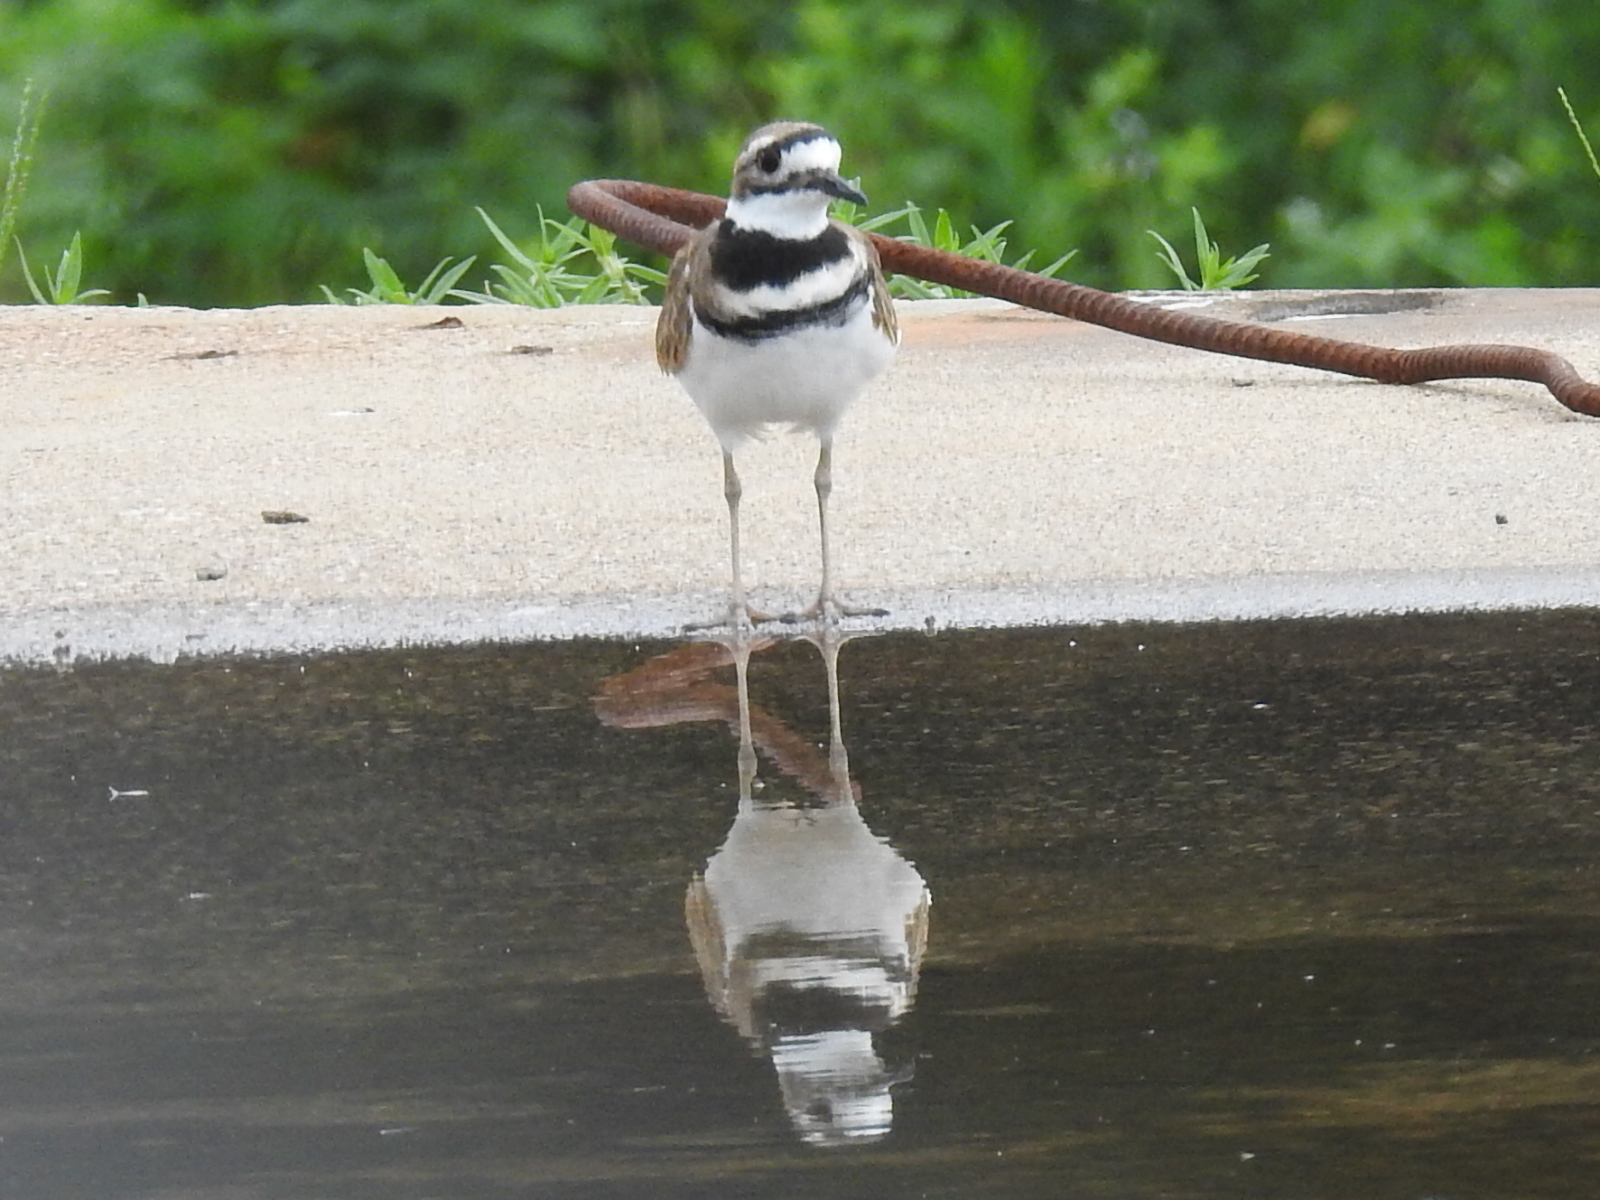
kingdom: Animalia
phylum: Chordata
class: Aves
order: Charadriiformes
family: Charadriidae
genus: Charadrius
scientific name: Charadrius vociferus
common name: Killdeer
